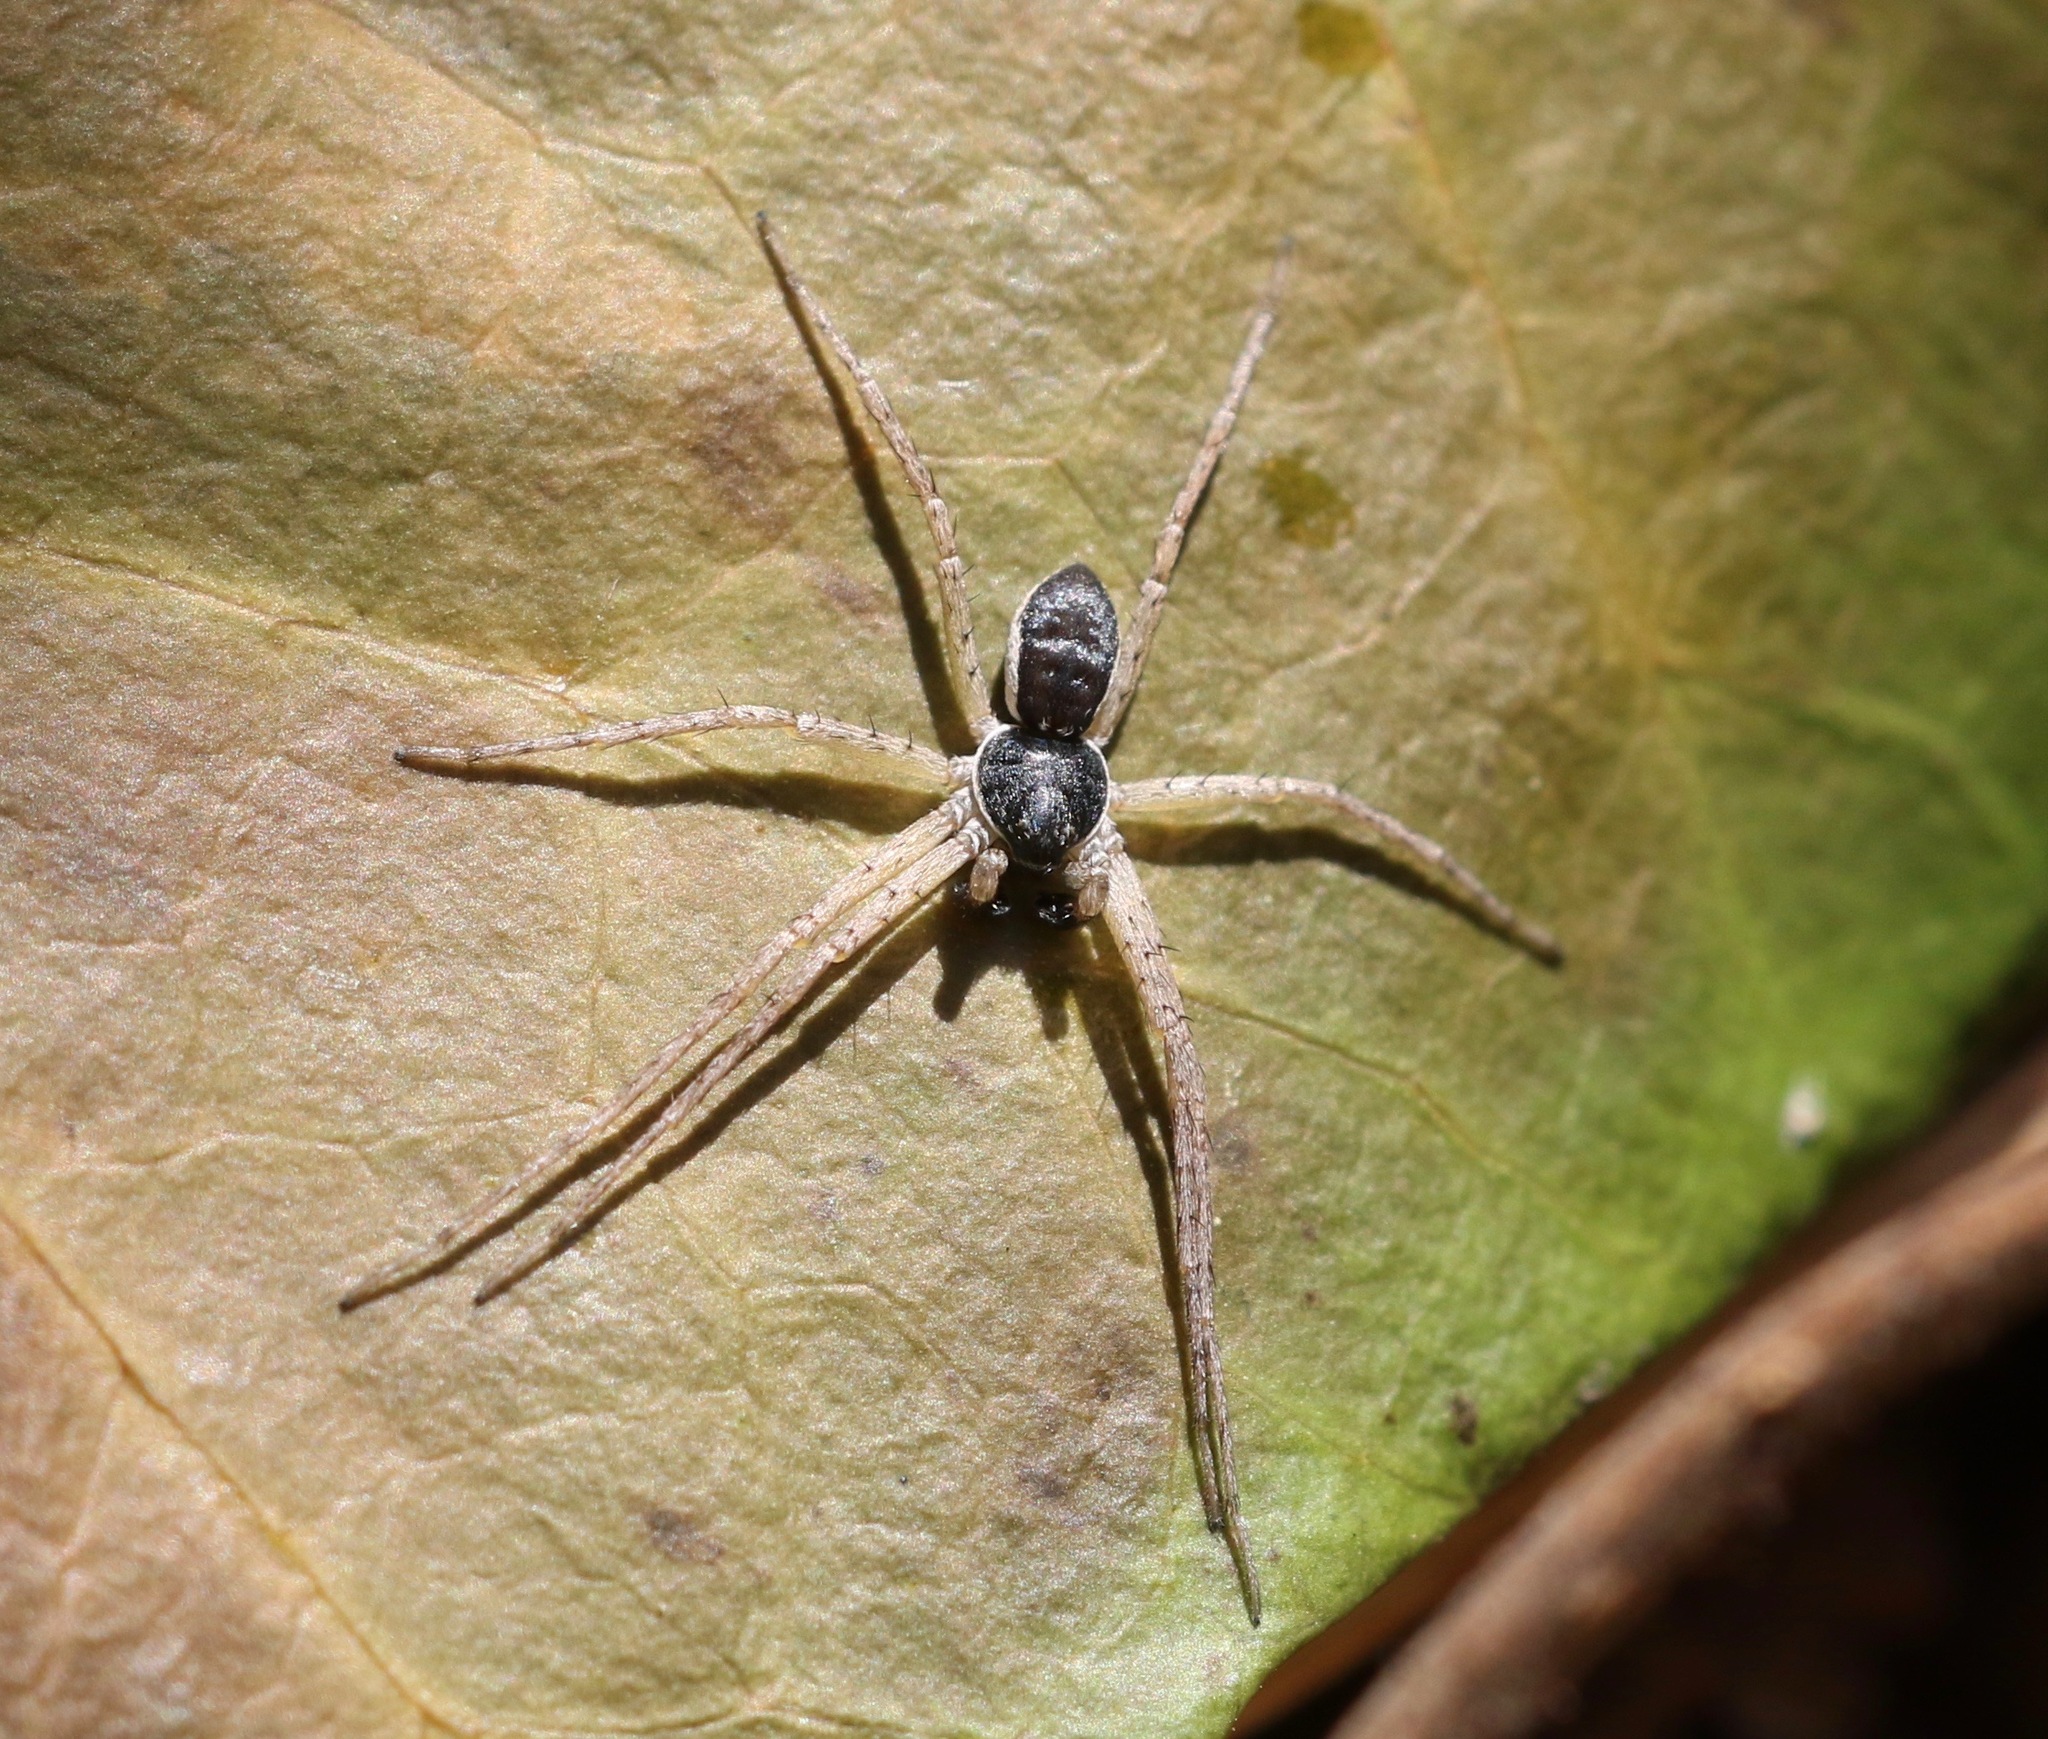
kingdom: Animalia
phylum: Arthropoda
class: Arachnida
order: Araneae
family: Philodromidae
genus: Philodromus
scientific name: Philodromus dispar
